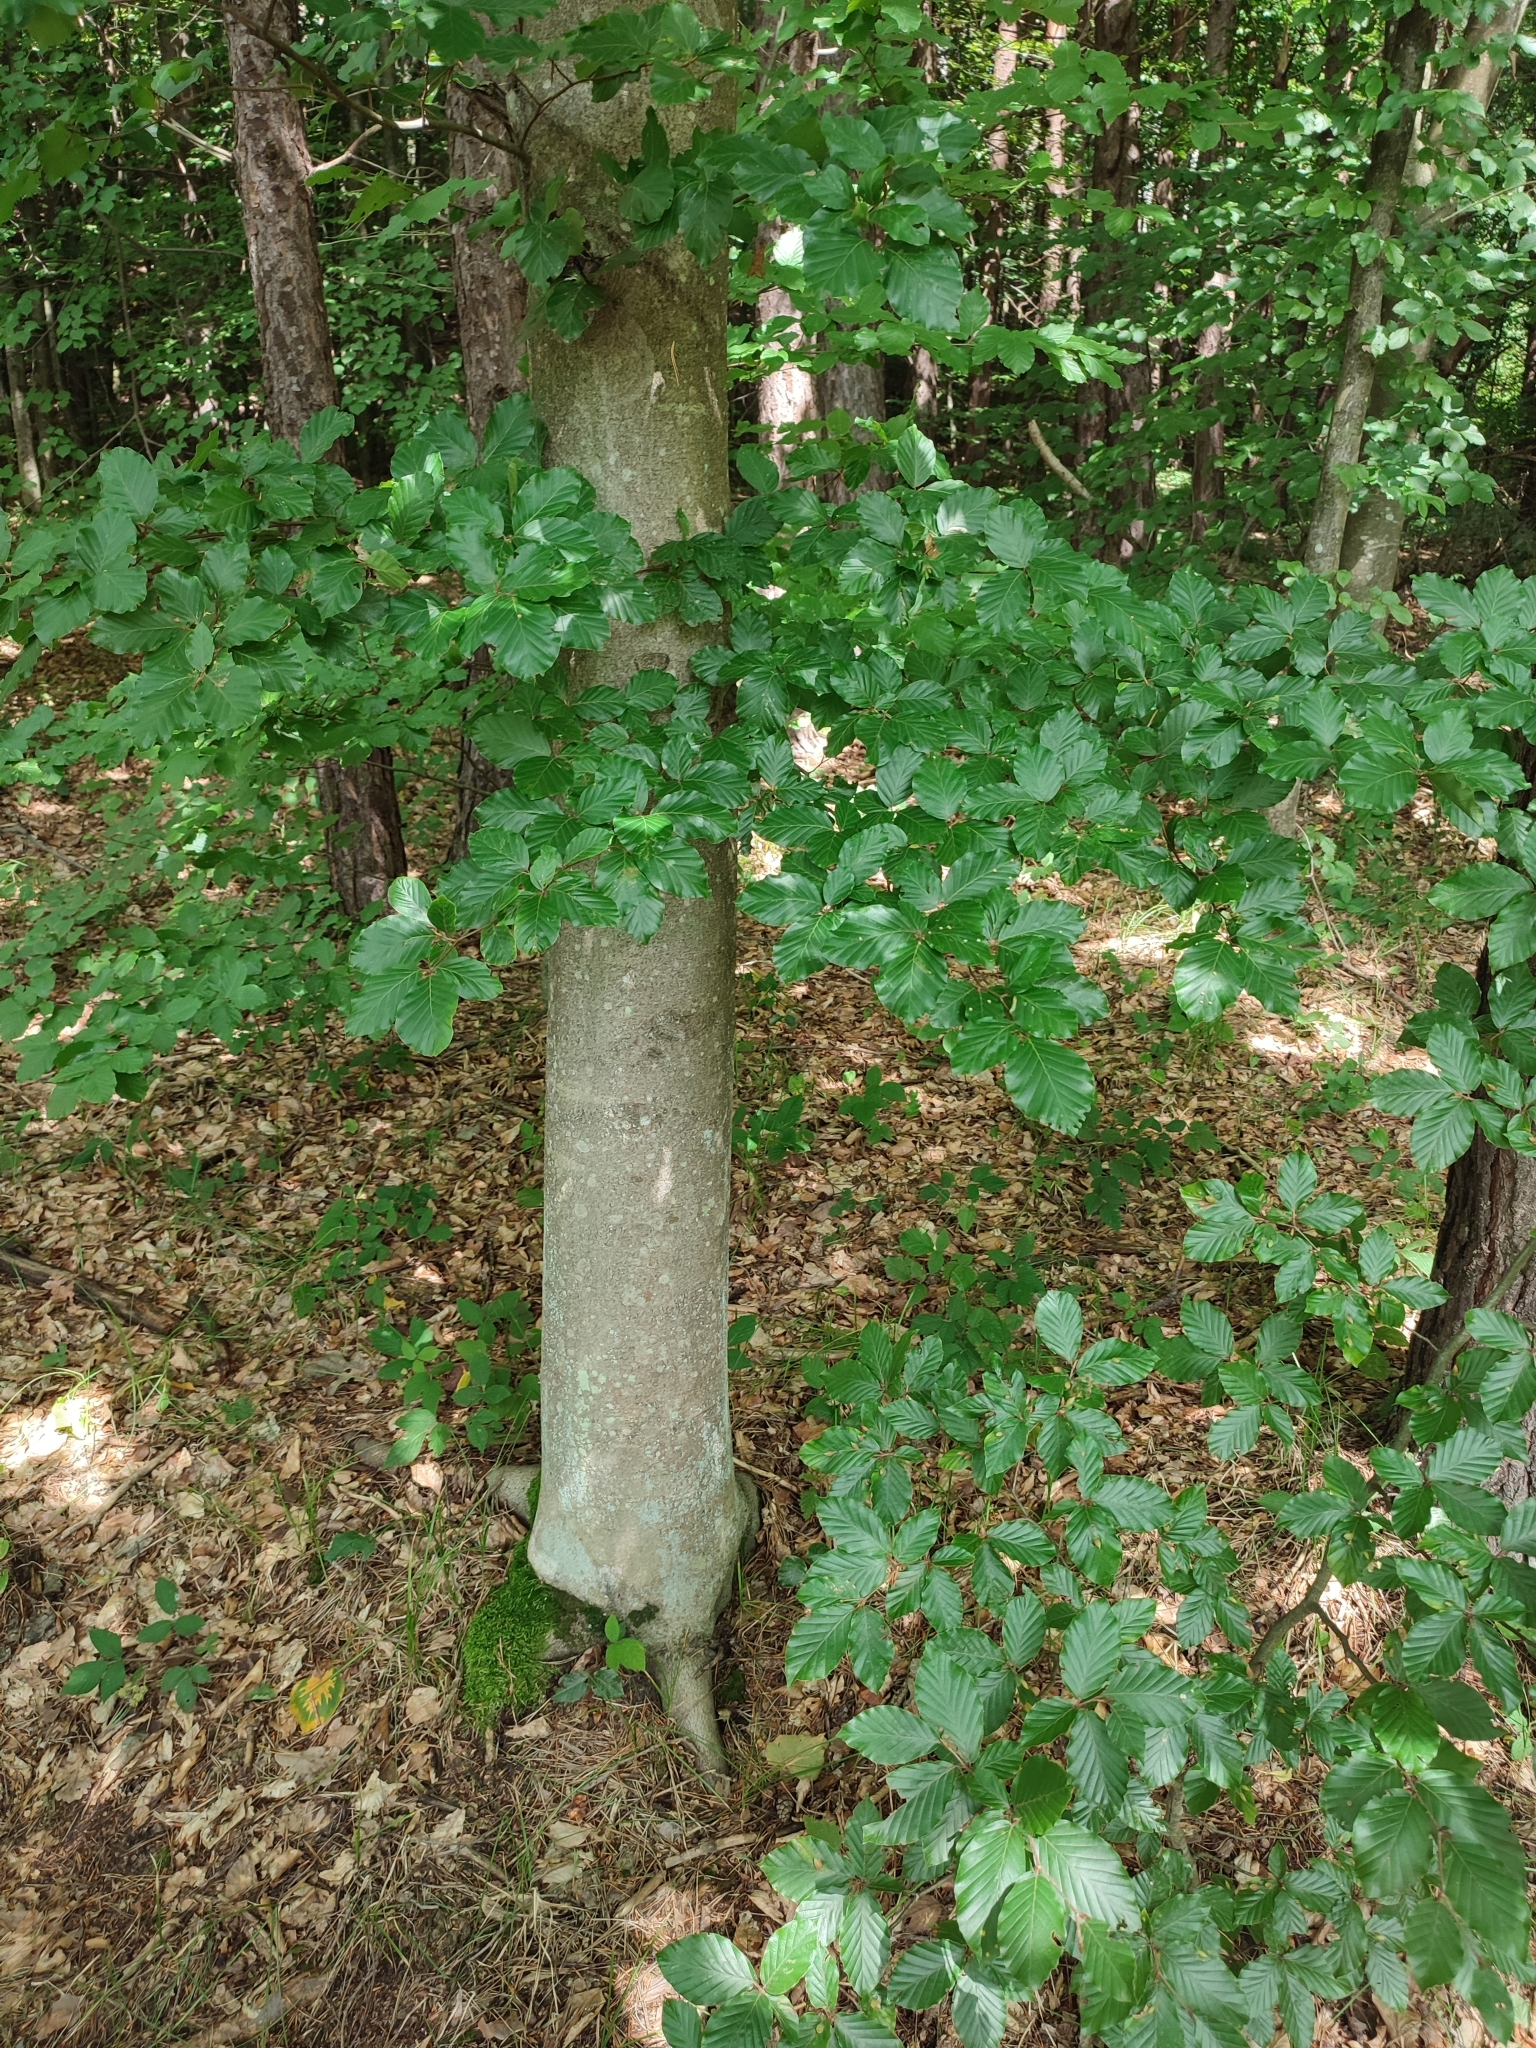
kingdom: Plantae
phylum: Tracheophyta
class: Magnoliopsida
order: Fagales
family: Fagaceae
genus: Fagus
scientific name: Fagus sylvatica
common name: Beech
